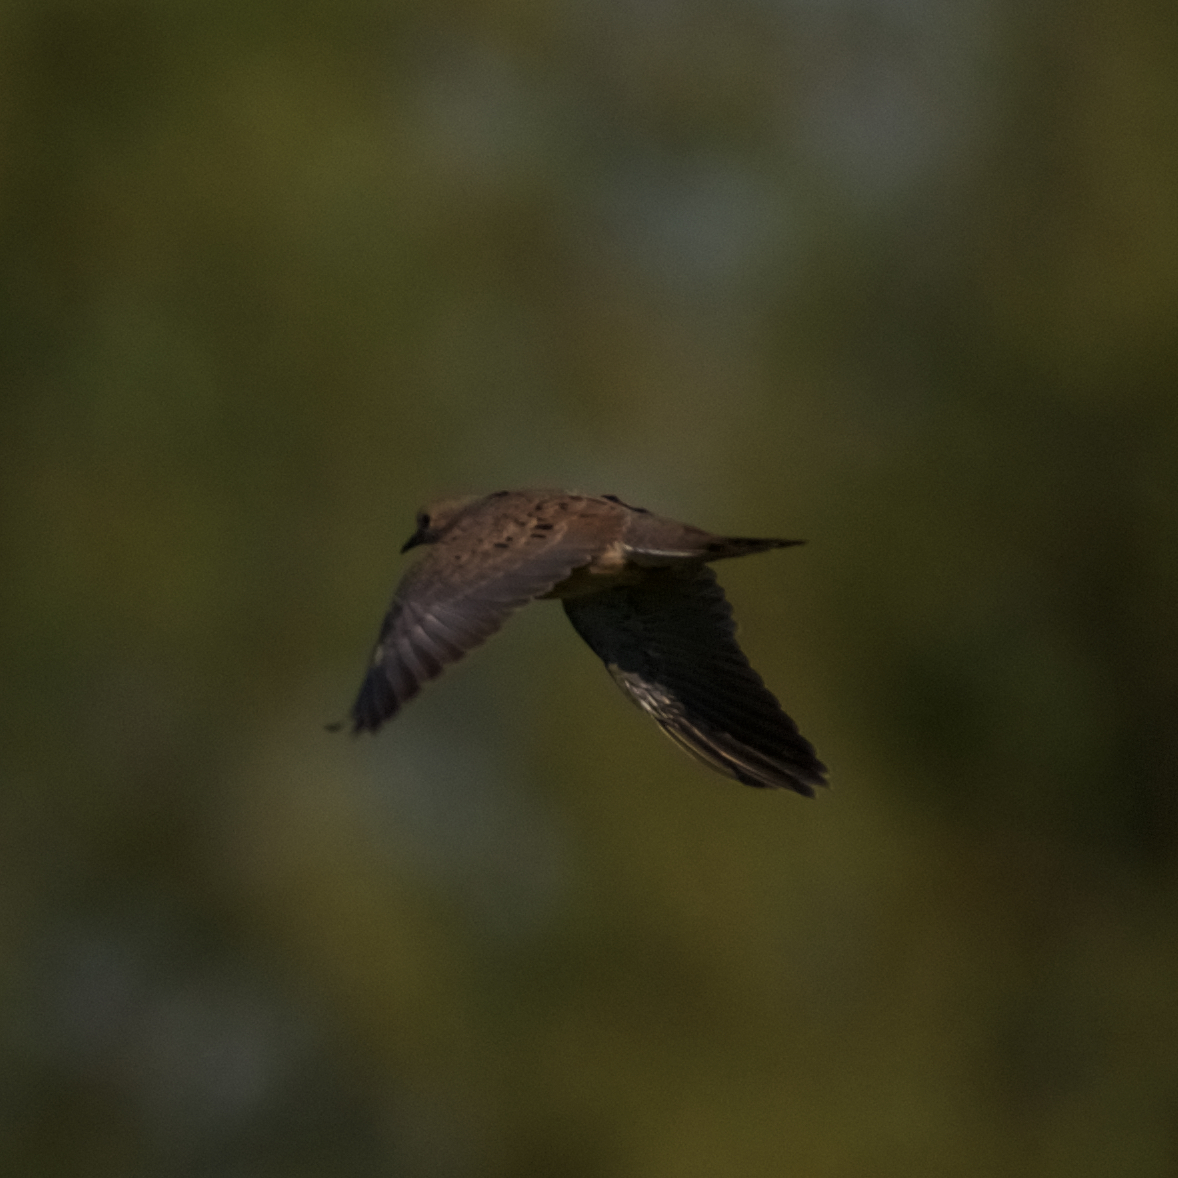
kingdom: Animalia
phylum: Chordata
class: Aves
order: Columbiformes
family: Columbidae
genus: Zenaida
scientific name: Zenaida macroura
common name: Mourning dove
